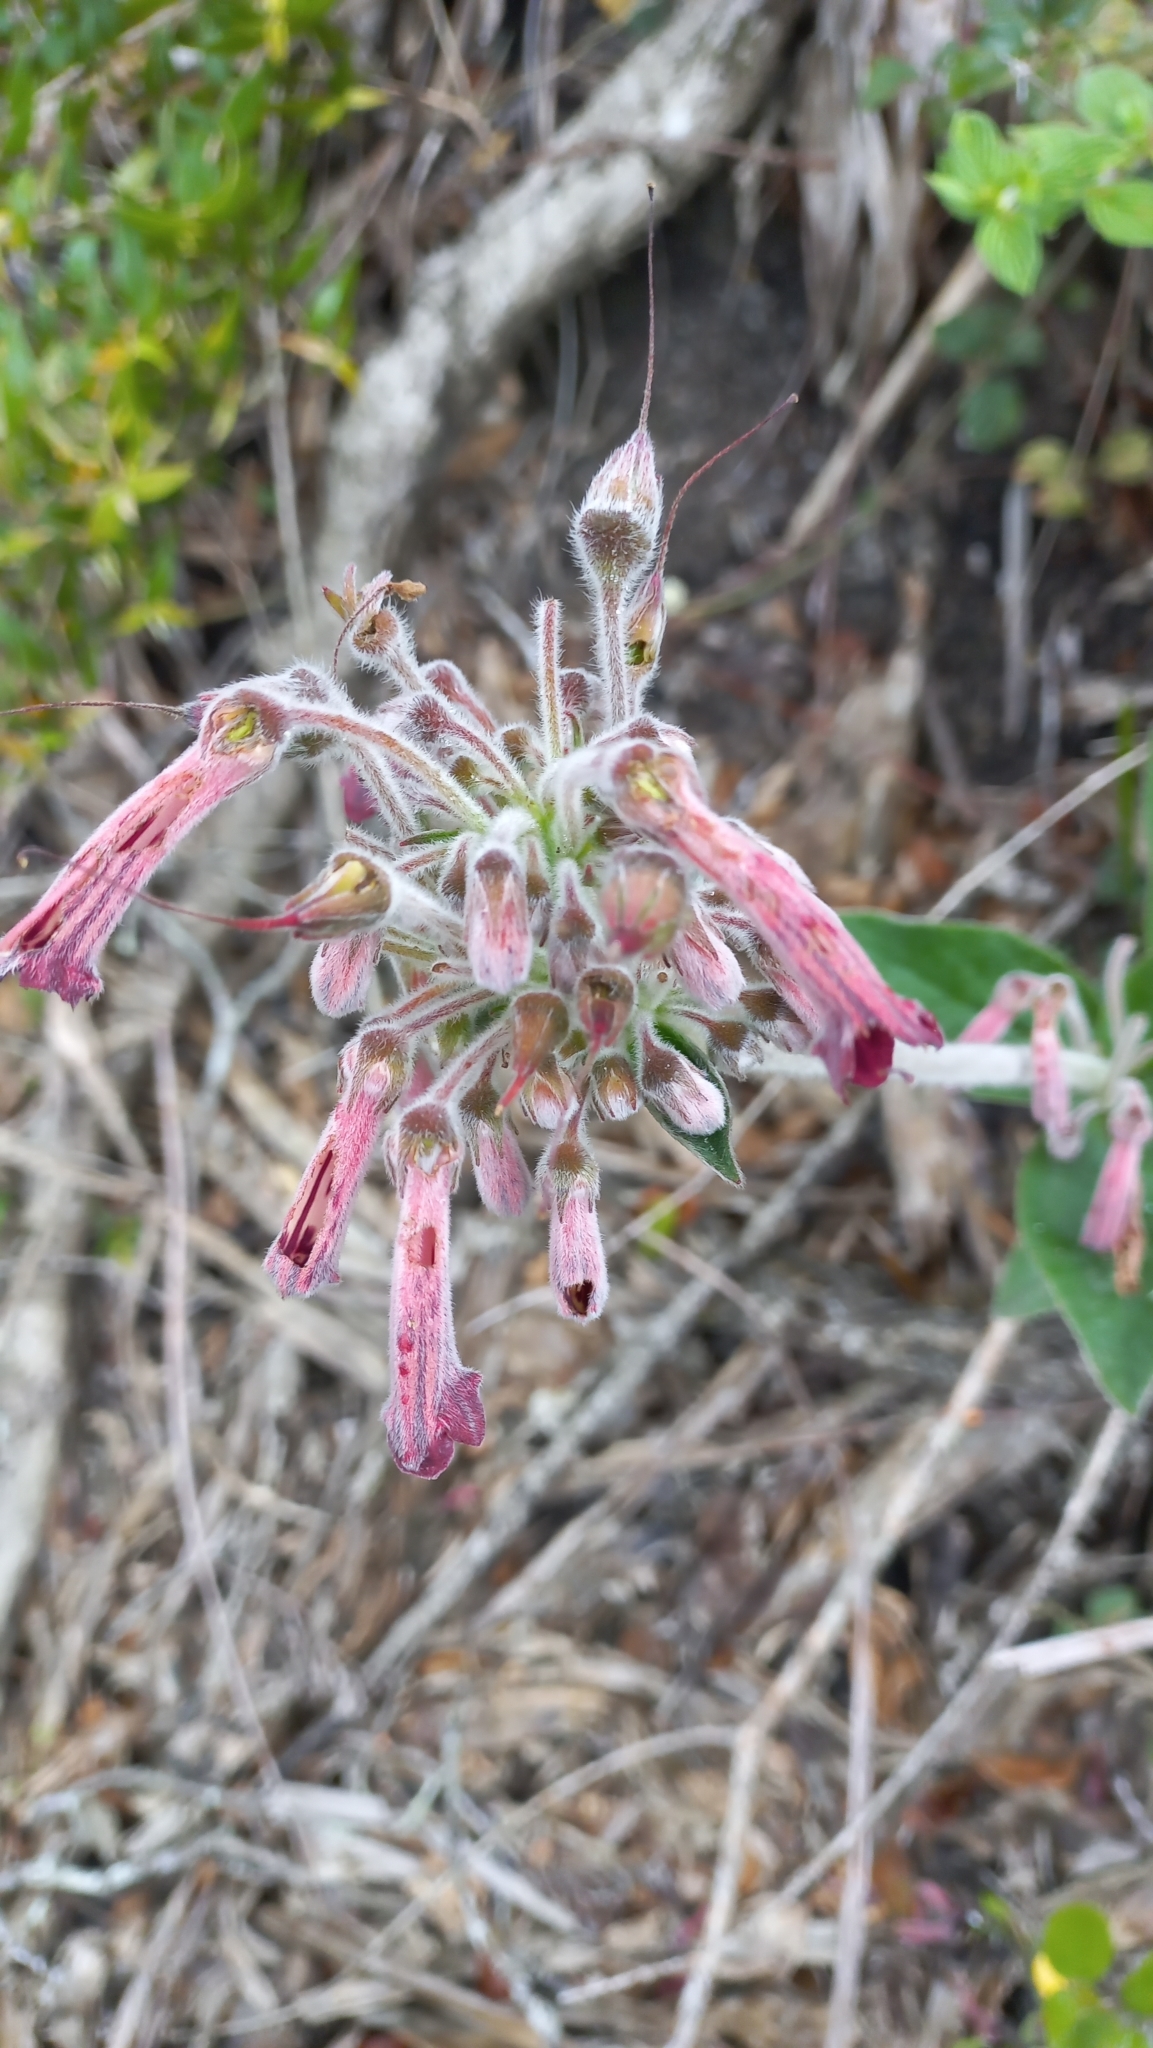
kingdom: Plantae
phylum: Tracheophyta
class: Magnoliopsida
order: Lamiales
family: Gesneriaceae
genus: Sinningia
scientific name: Sinningia polyantha
